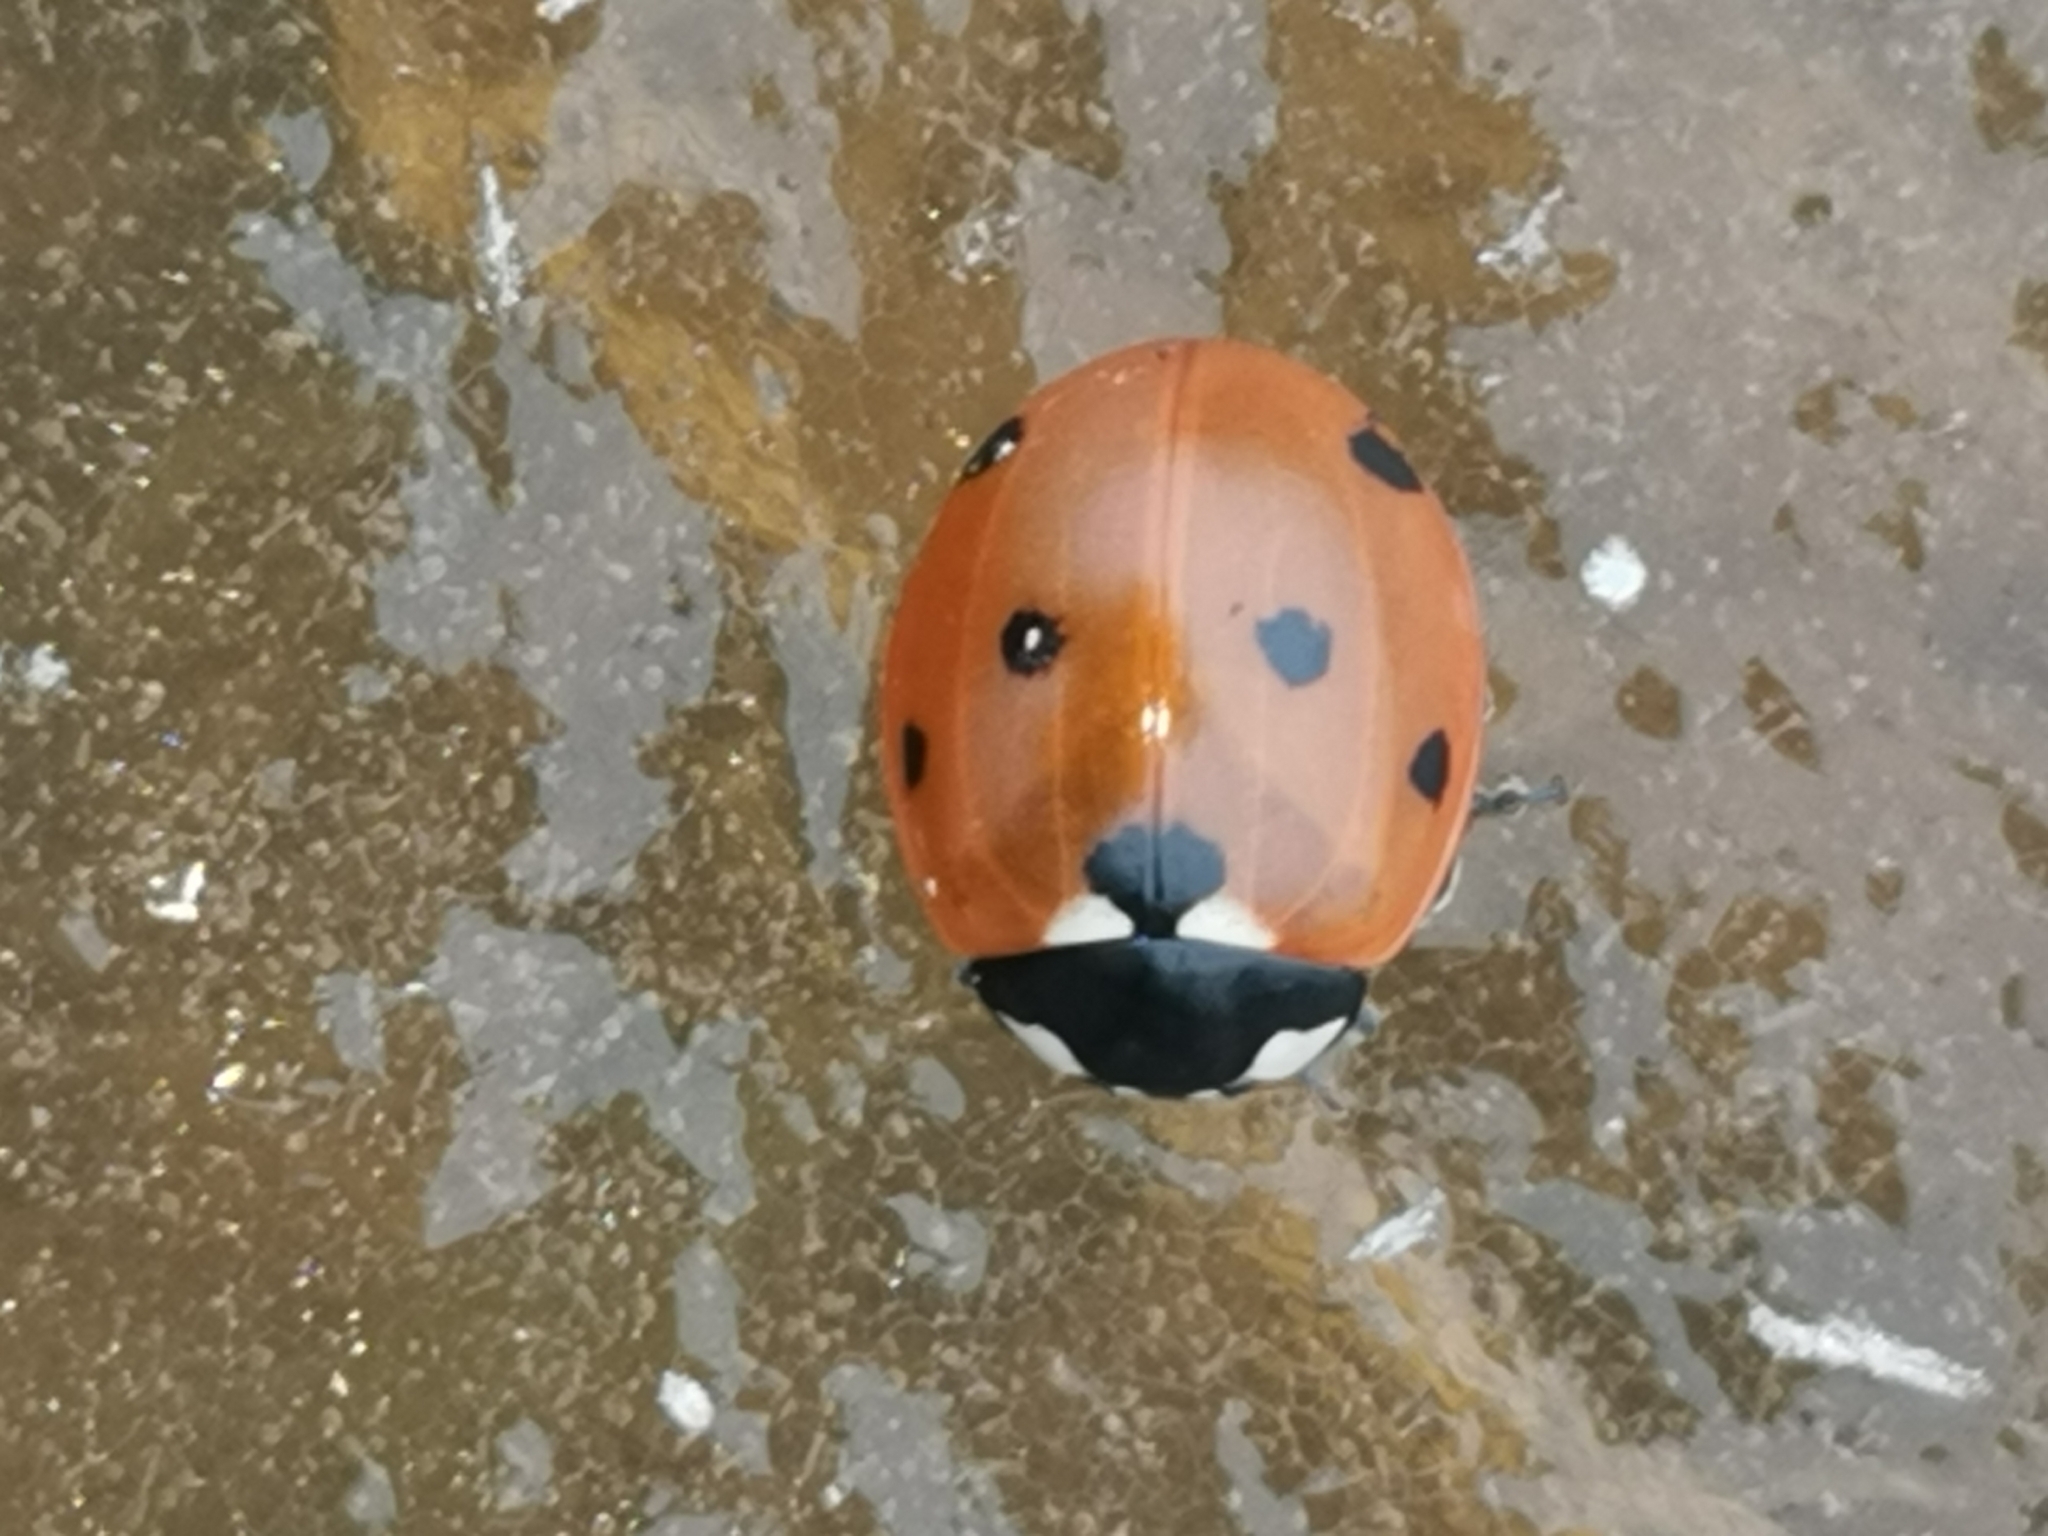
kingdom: Animalia
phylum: Arthropoda
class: Insecta
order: Coleoptera
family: Coccinellidae
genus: Coccinella
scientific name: Coccinella septempunctata
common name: Sevenspotted lady beetle
